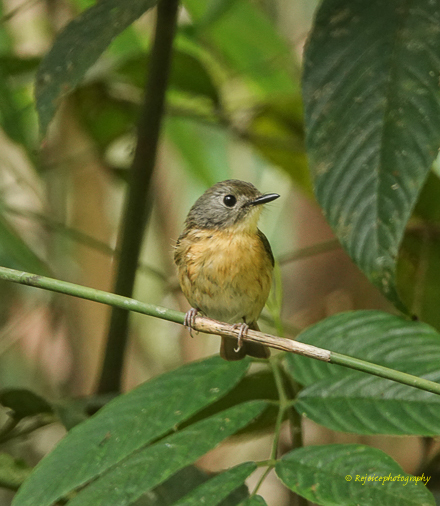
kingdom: Animalia
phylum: Chordata
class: Aves
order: Passeriformes
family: Muscicapidae
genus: Cyornis
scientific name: Cyornis poliogenys
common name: Pale-chinned blue flycatcher
